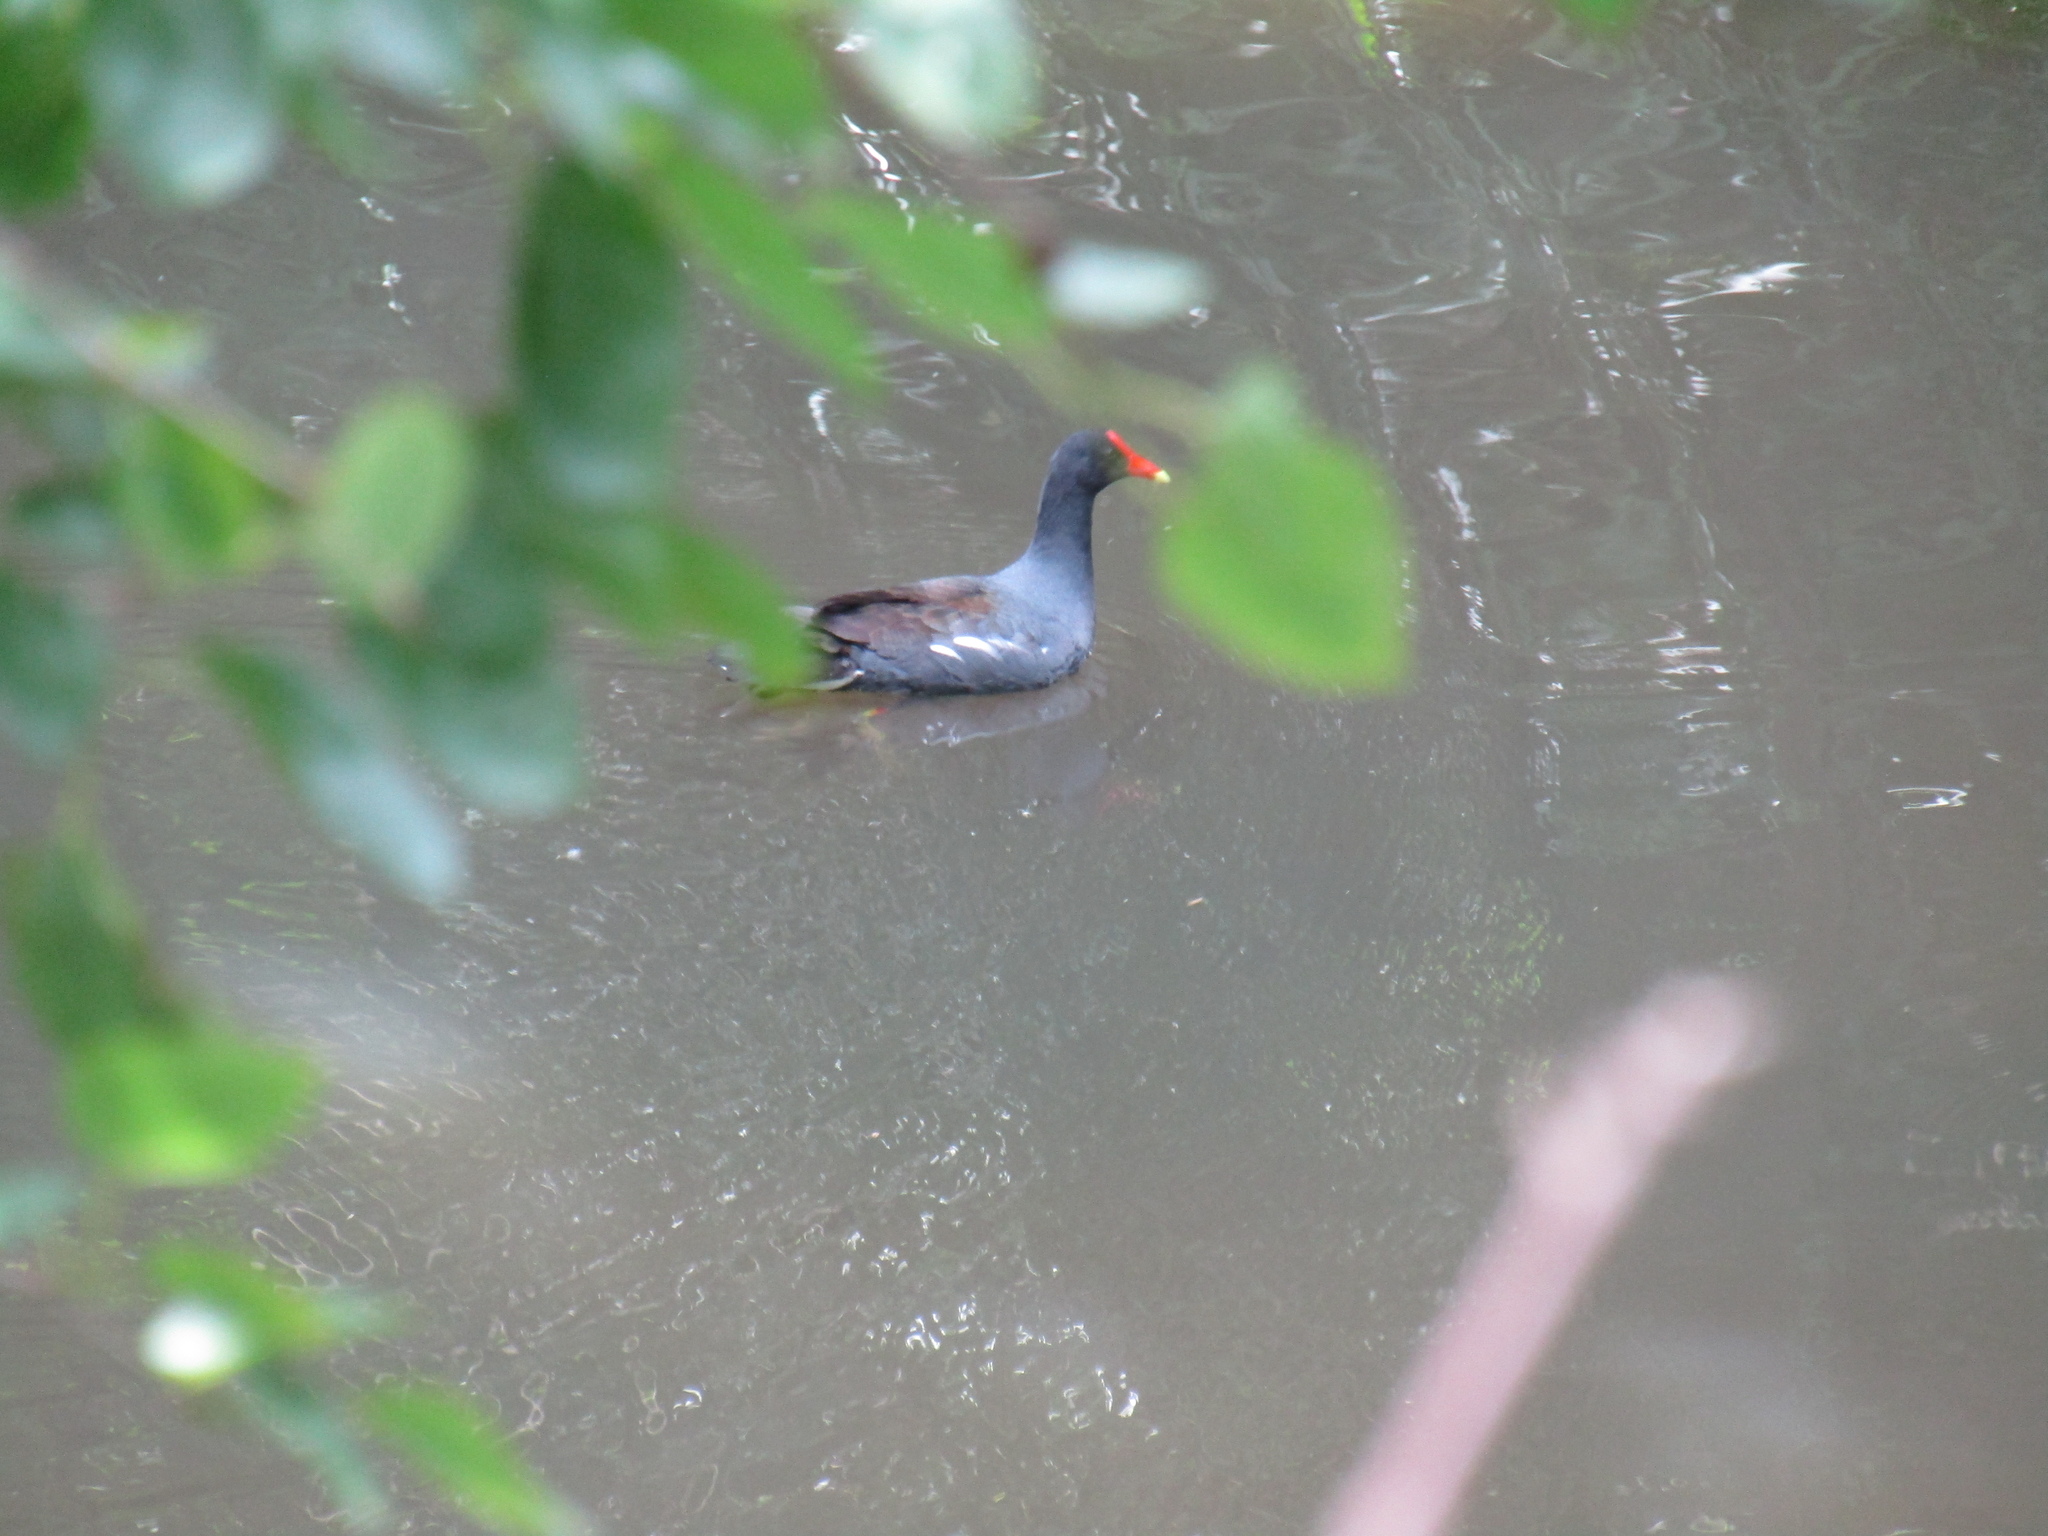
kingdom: Animalia
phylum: Chordata
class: Aves
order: Gruiformes
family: Rallidae
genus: Gallinula
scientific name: Gallinula chloropus
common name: Common moorhen
